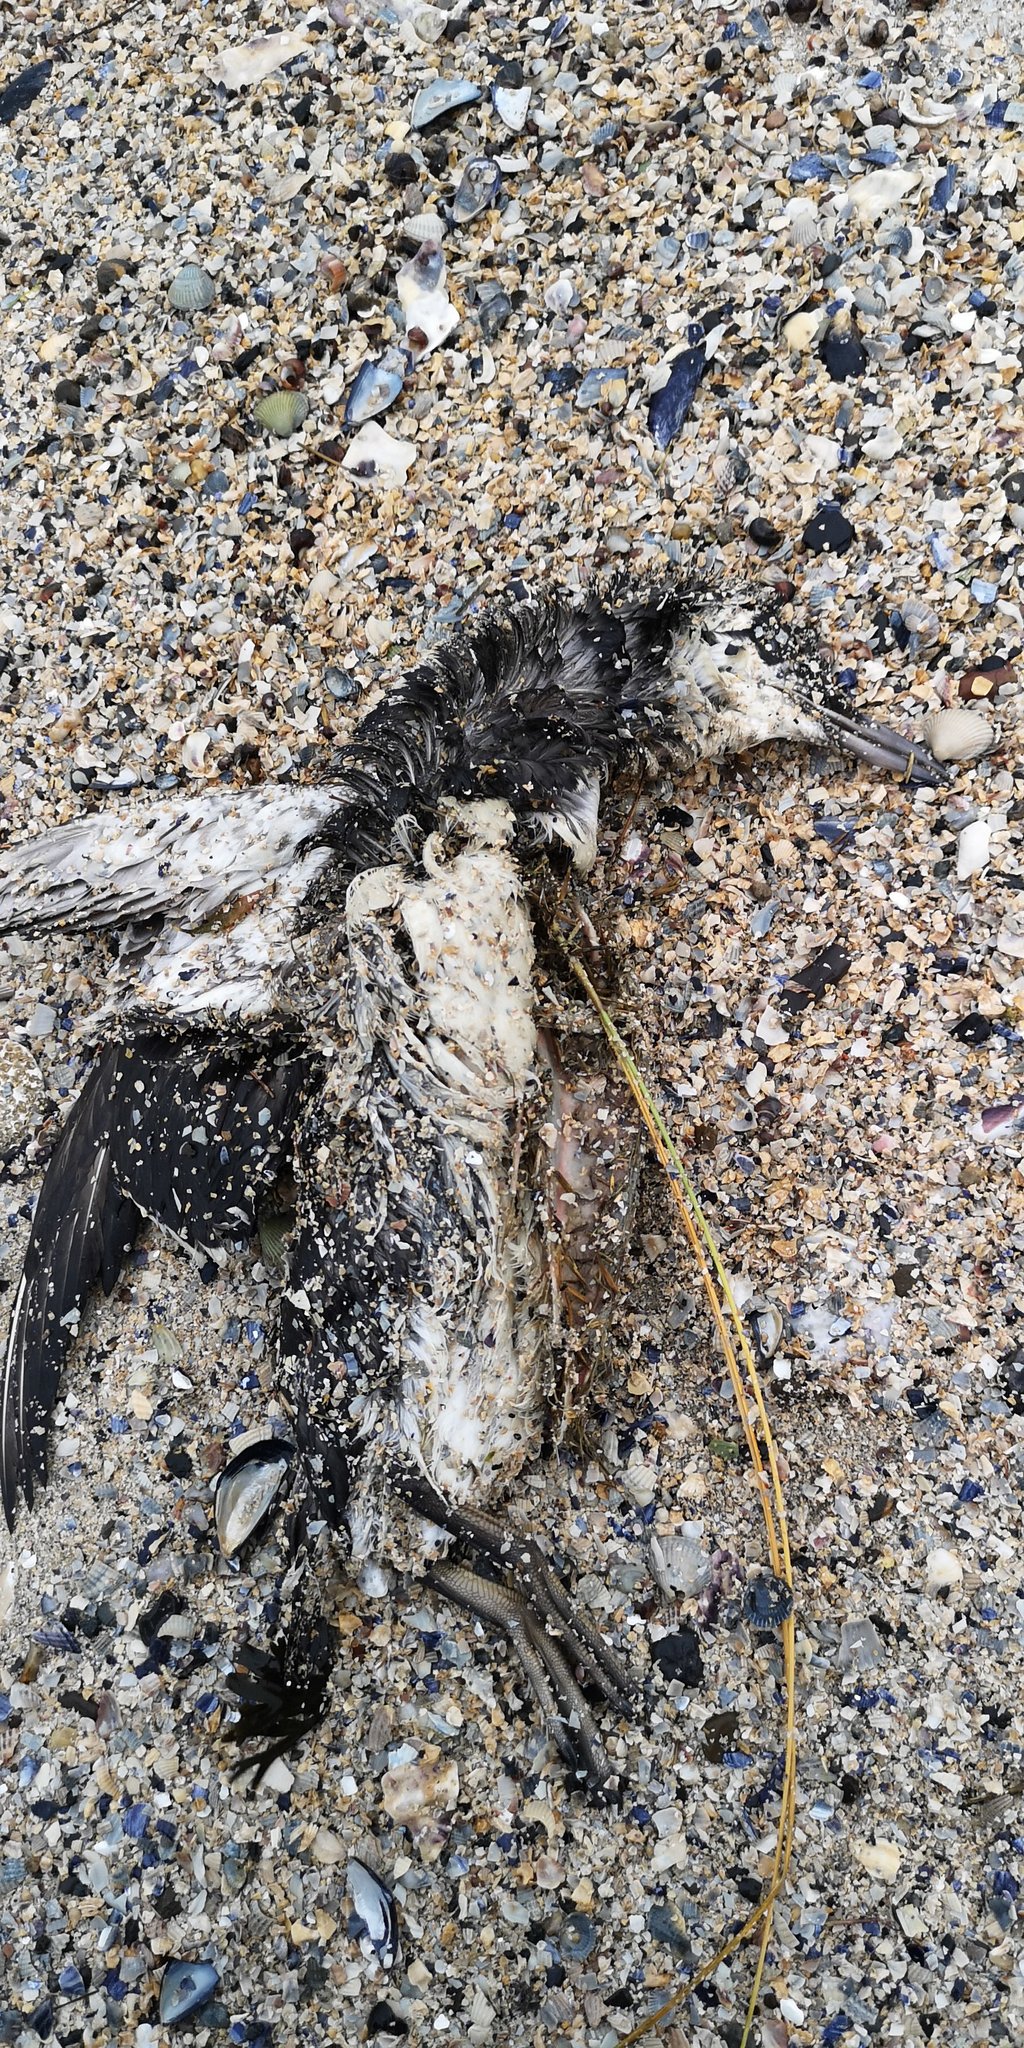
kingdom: Animalia
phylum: Chordata
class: Aves
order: Charadriiformes
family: Alcidae
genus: Uria
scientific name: Uria aalge
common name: Common murre
